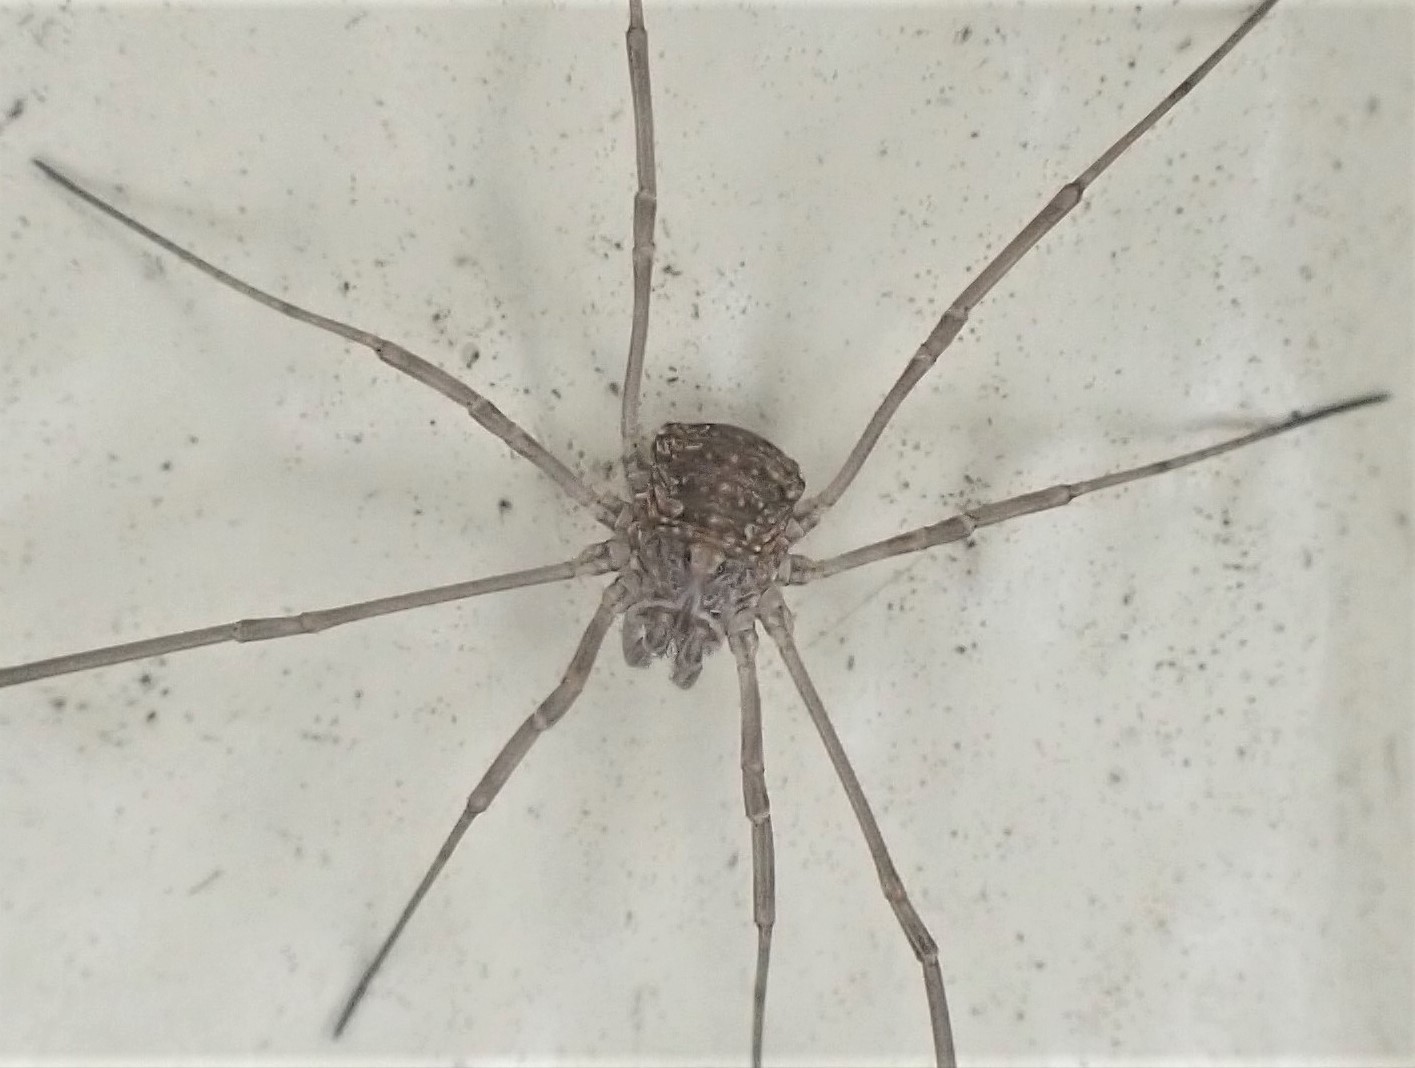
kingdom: Animalia
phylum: Arthropoda
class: Arachnida
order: Opiliones
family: Phalangiidae
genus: Phalangium
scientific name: Phalangium opilio
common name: Daddy longleg
